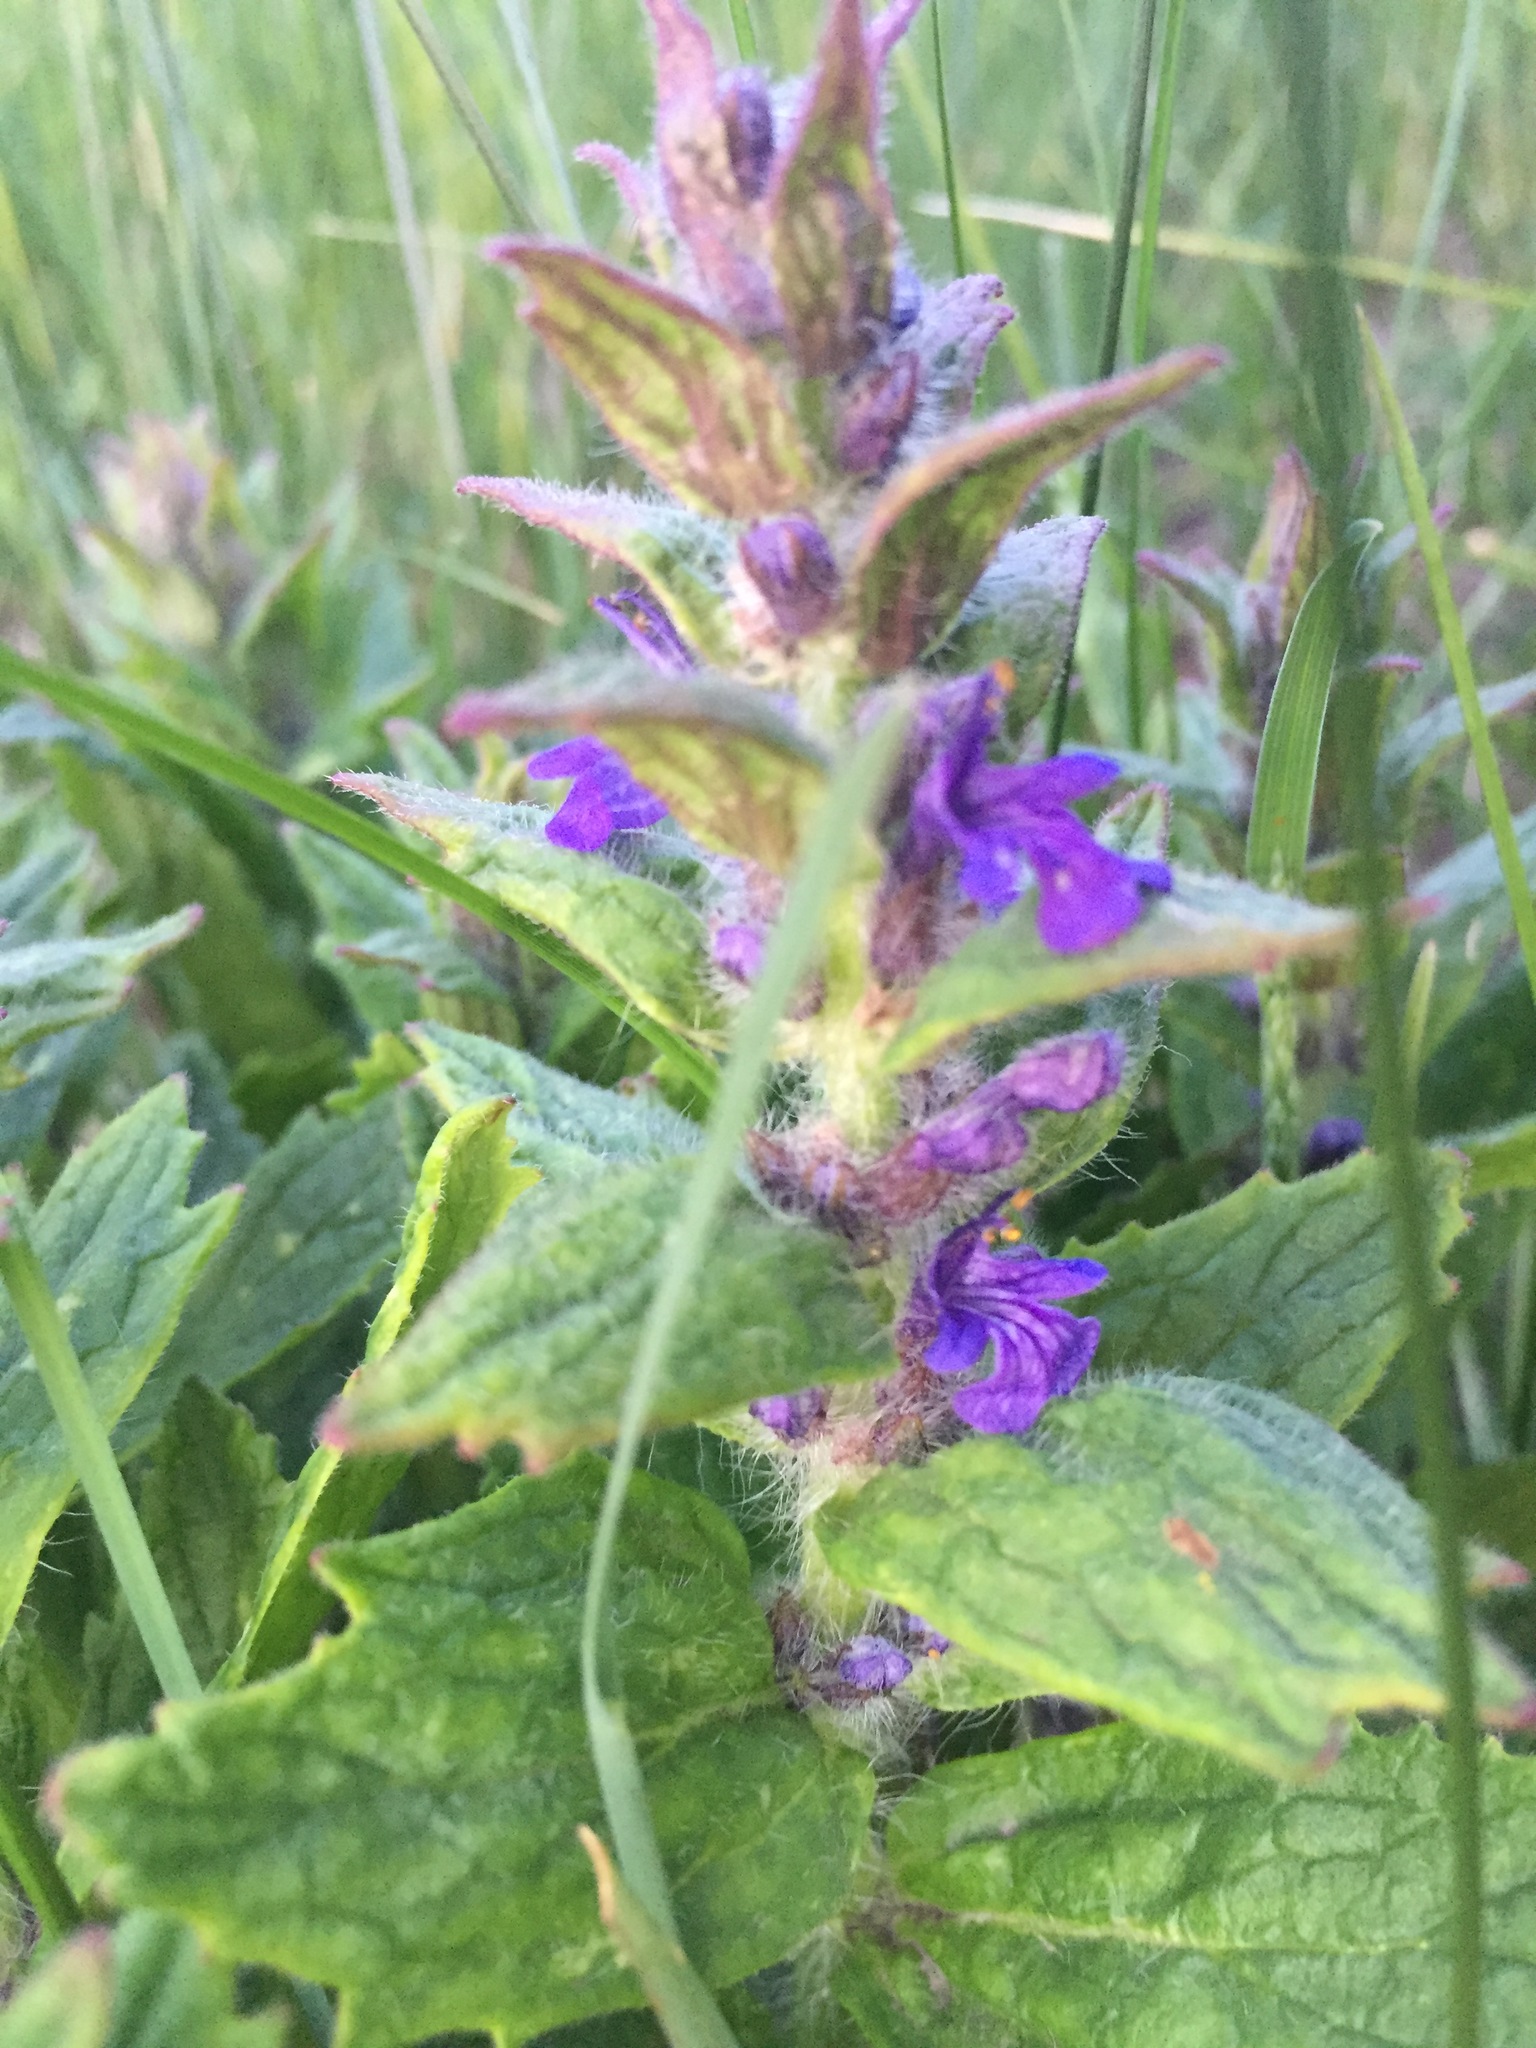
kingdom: Plantae
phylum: Tracheophyta
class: Magnoliopsida
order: Lamiales
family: Lamiaceae
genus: Ajuga
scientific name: Ajuga genevensis
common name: Blue bugle
